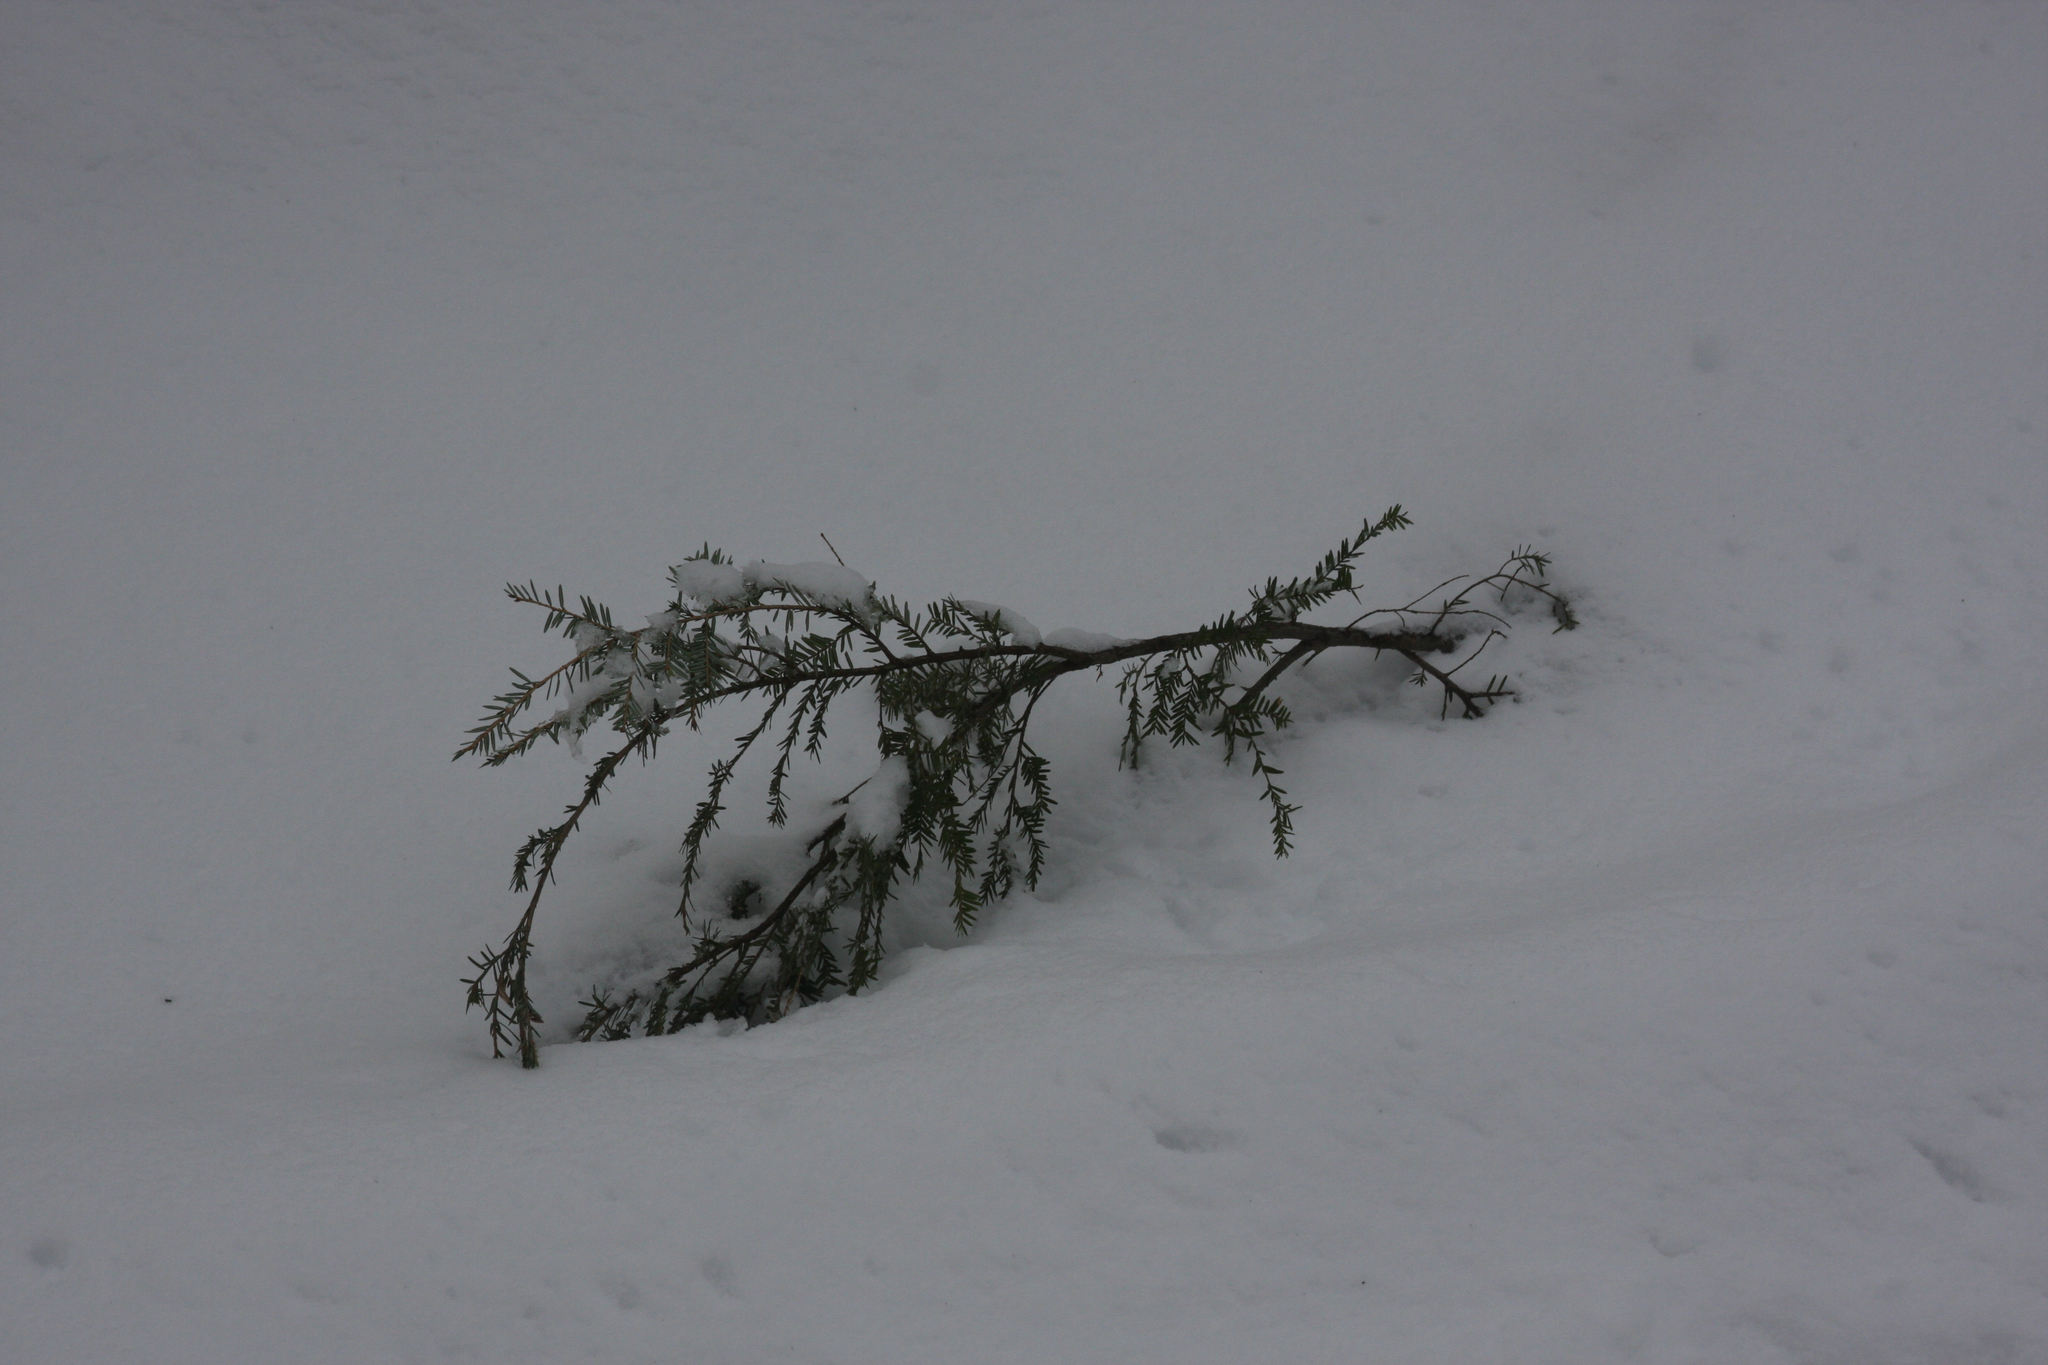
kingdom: Plantae
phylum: Tracheophyta
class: Pinopsida
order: Pinales
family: Pinaceae
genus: Tsuga
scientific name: Tsuga canadensis
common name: Eastern hemlock
